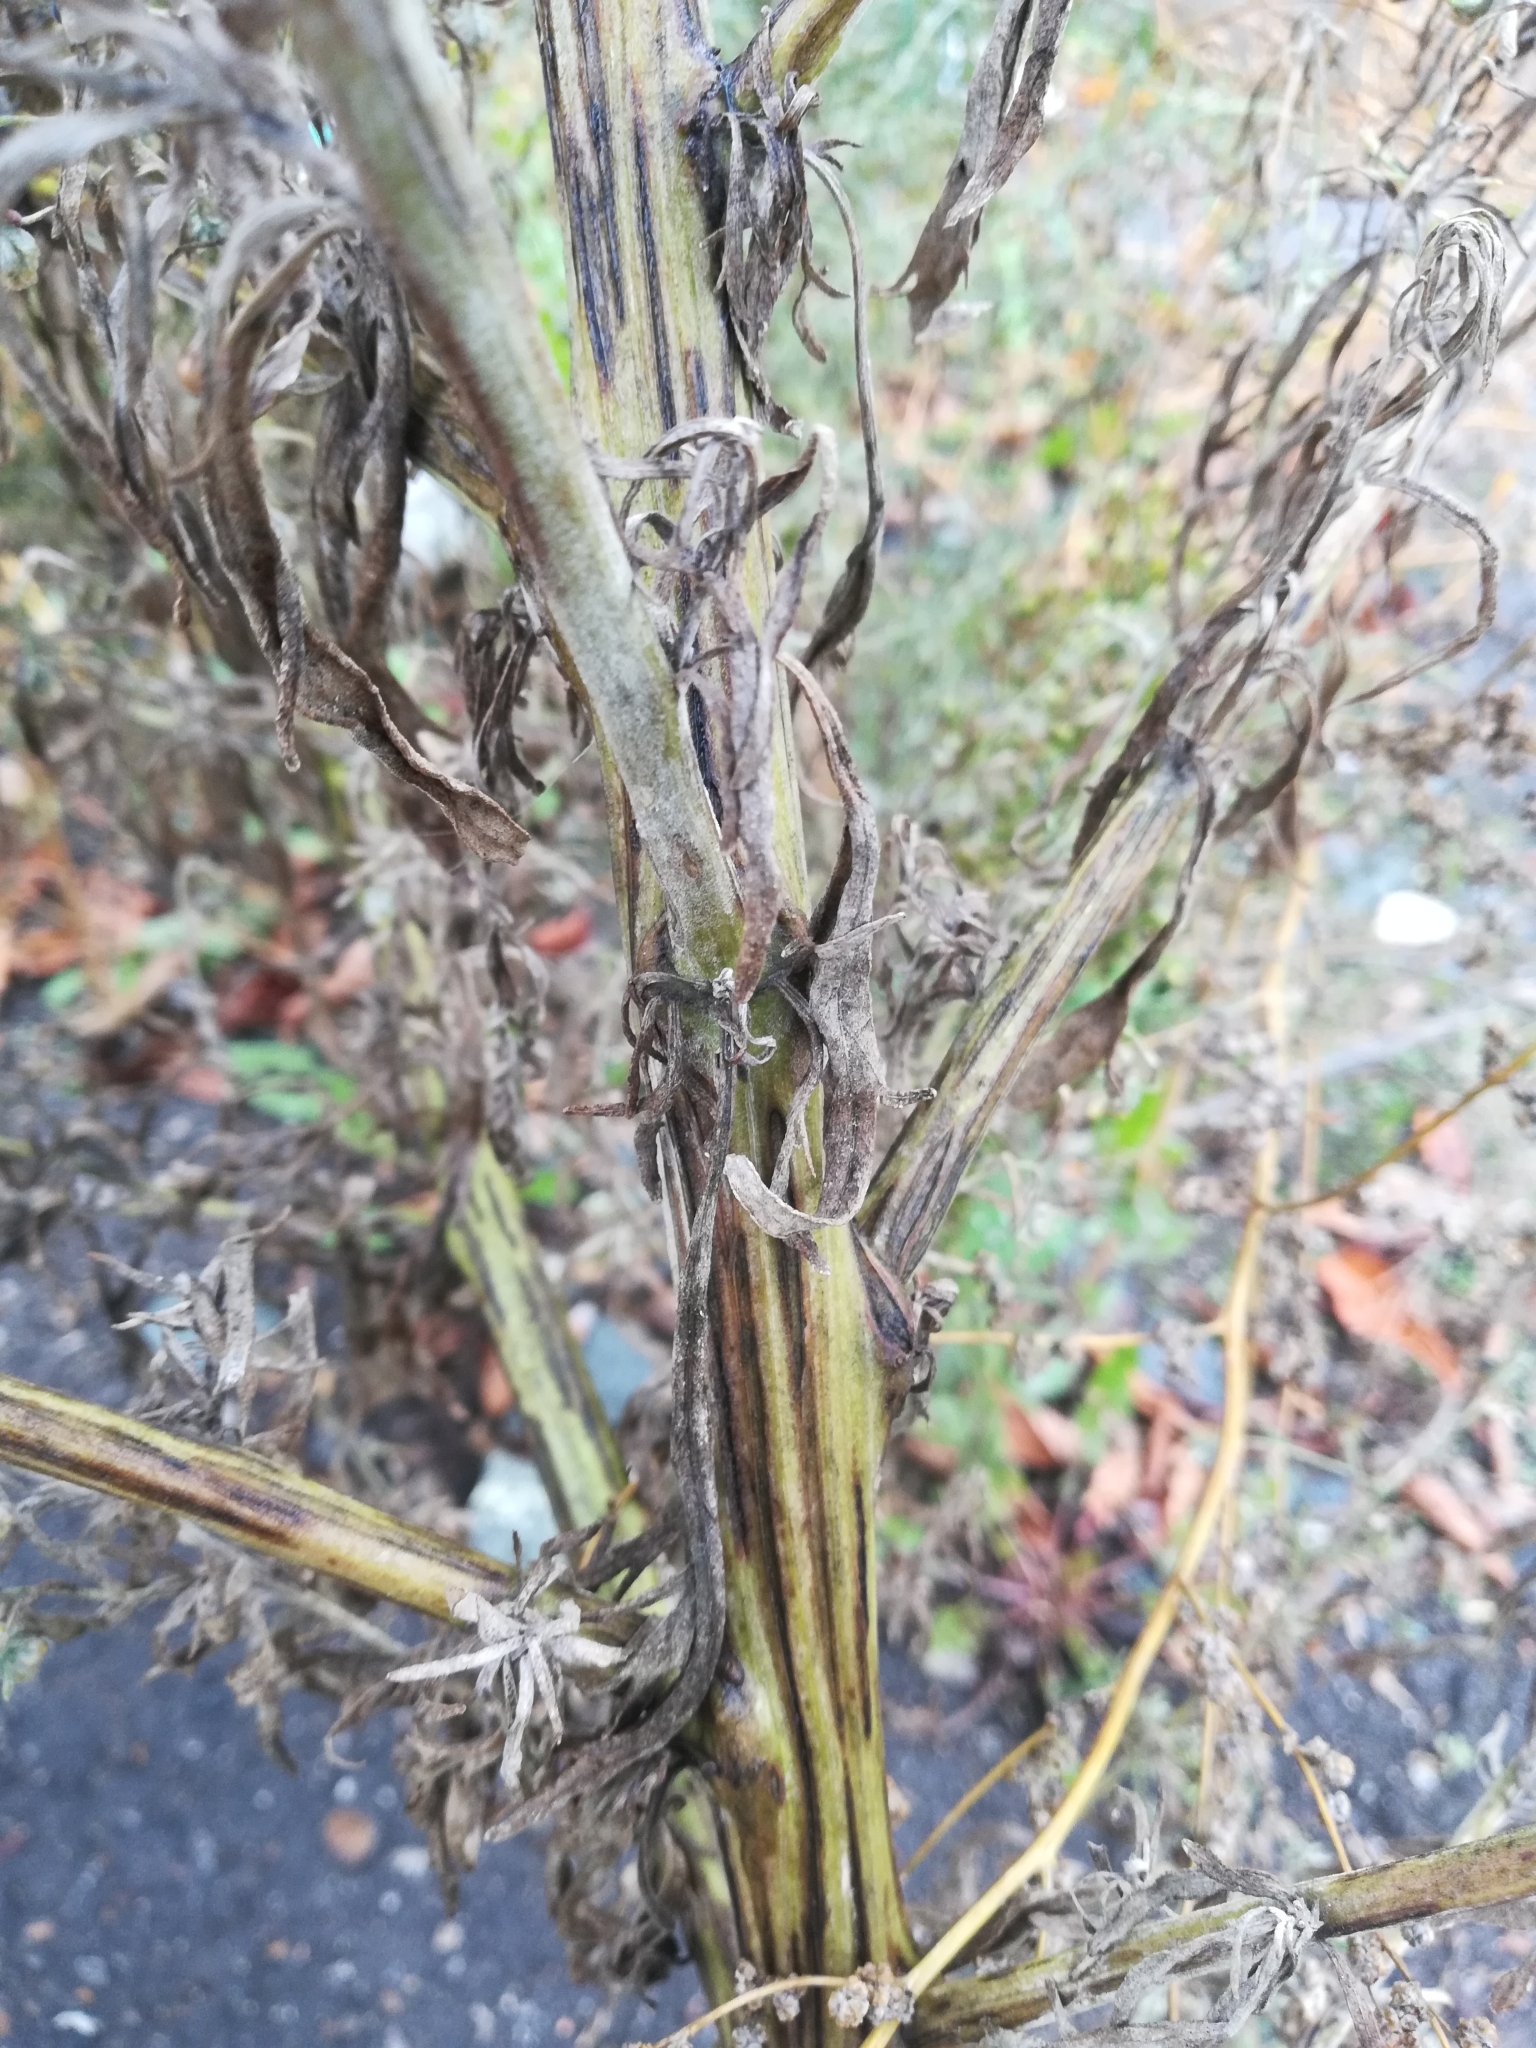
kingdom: Plantae
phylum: Tracheophyta
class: Magnoliopsida
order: Asterales
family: Asteraceae
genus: Artemisia
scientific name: Artemisia sieversiana
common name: Sieversian wormwood
